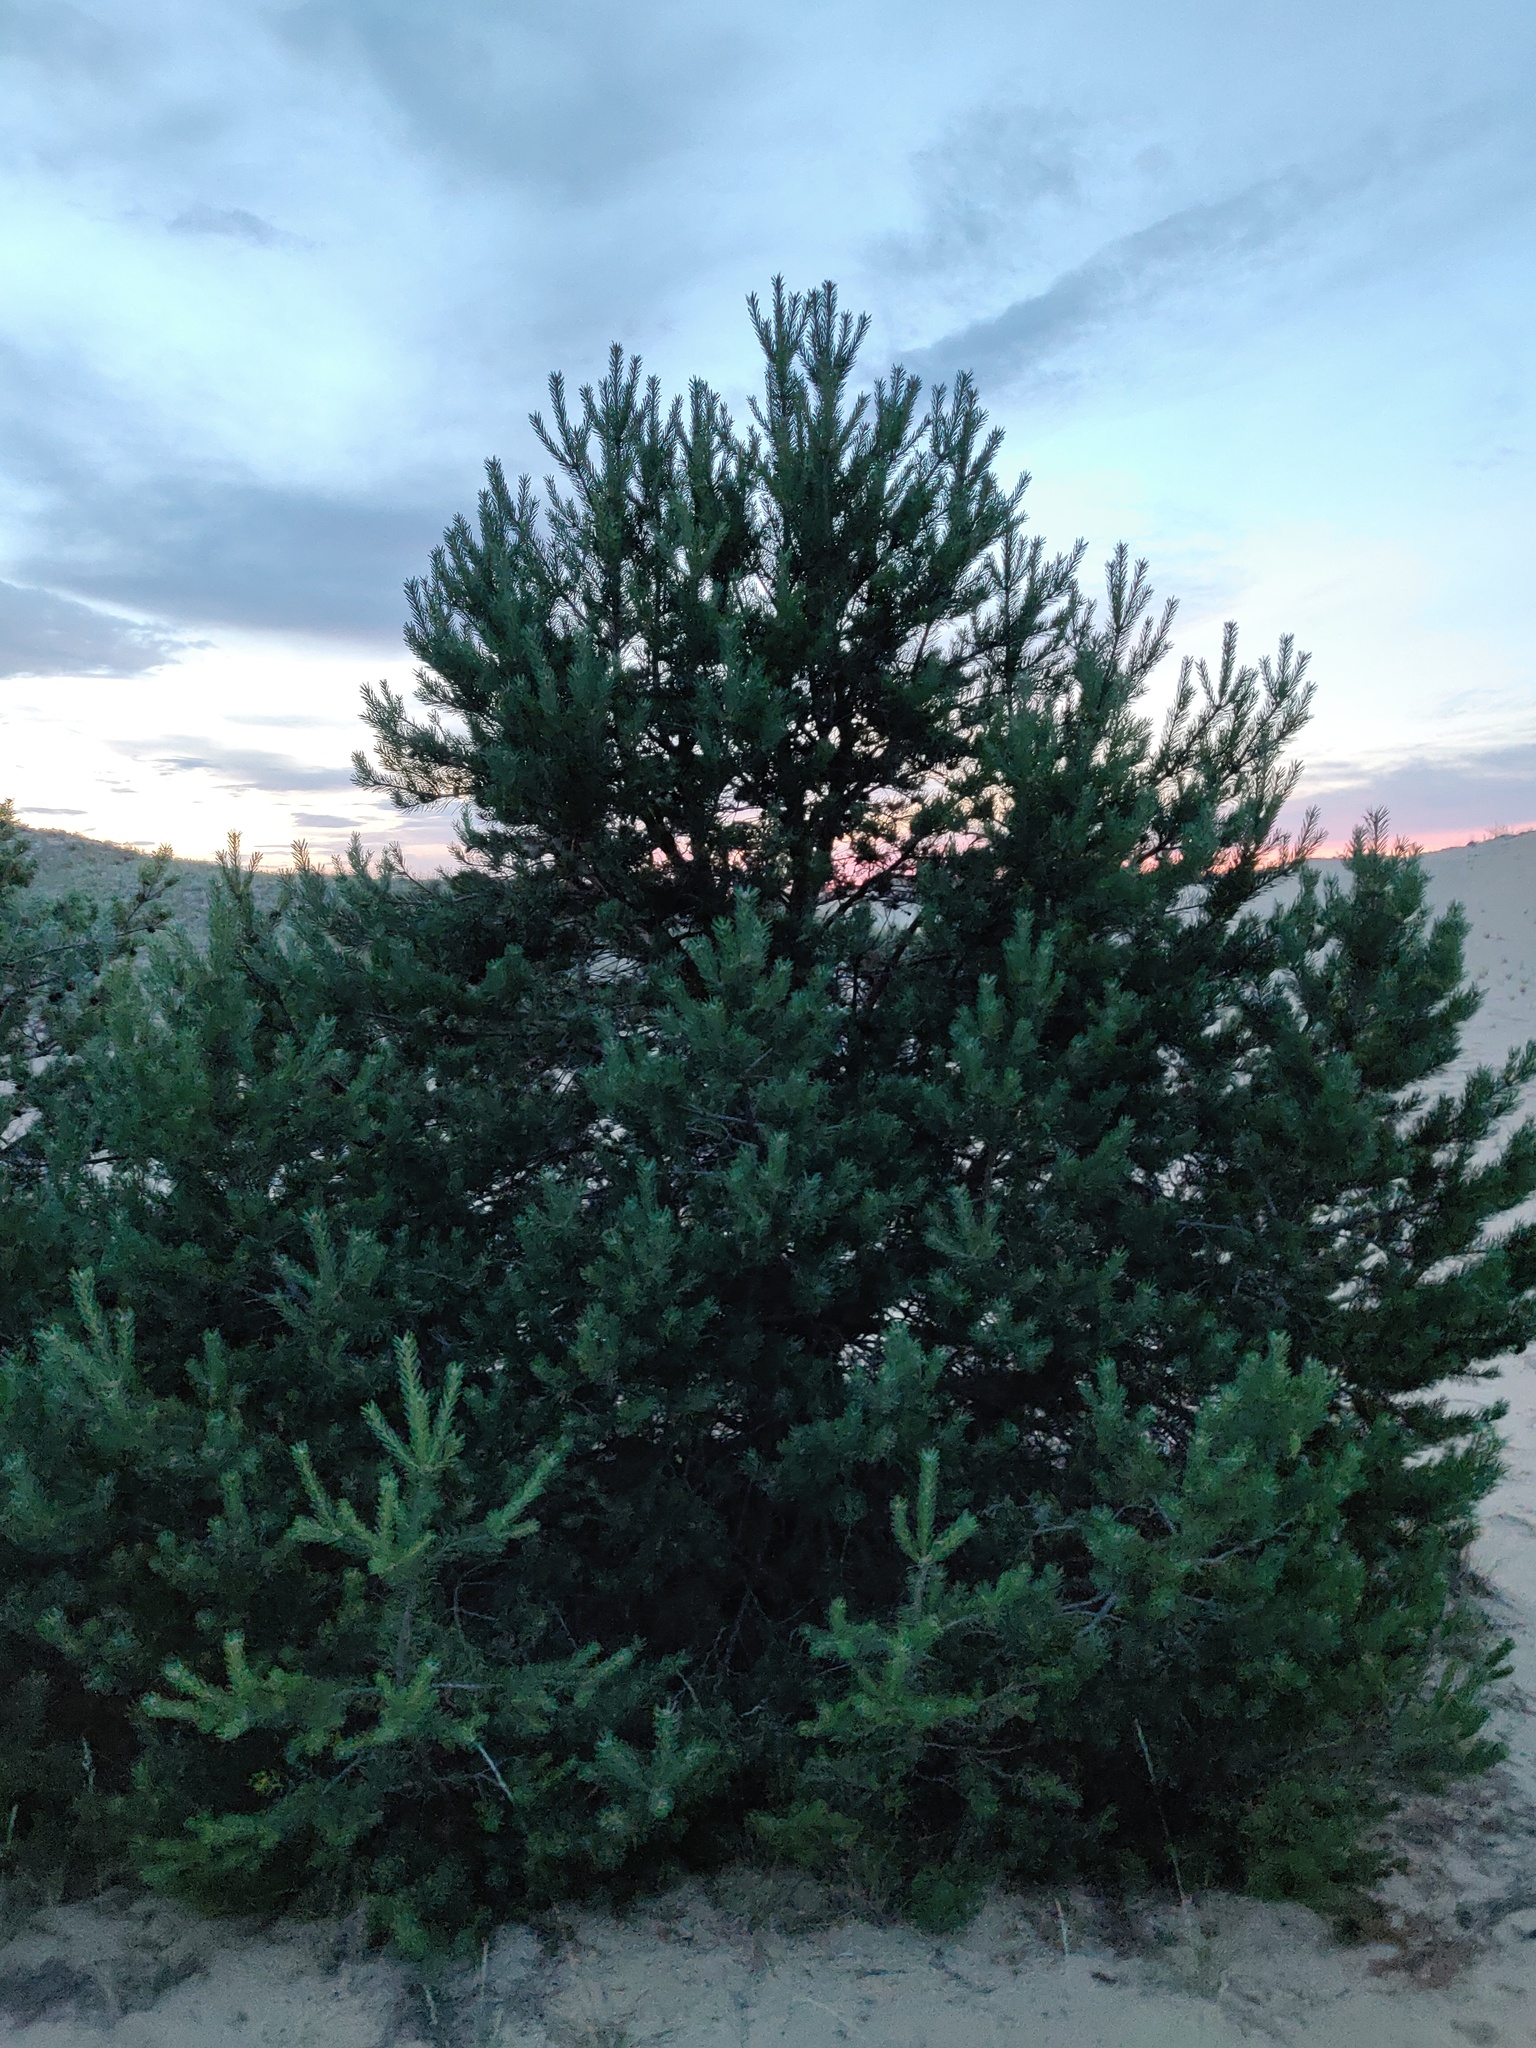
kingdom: Plantae
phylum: Tracheophyta
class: Pinopsida
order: Pinales
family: Pinaceae
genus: Pinus
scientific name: Pinus sylvestris
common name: Scots pine
